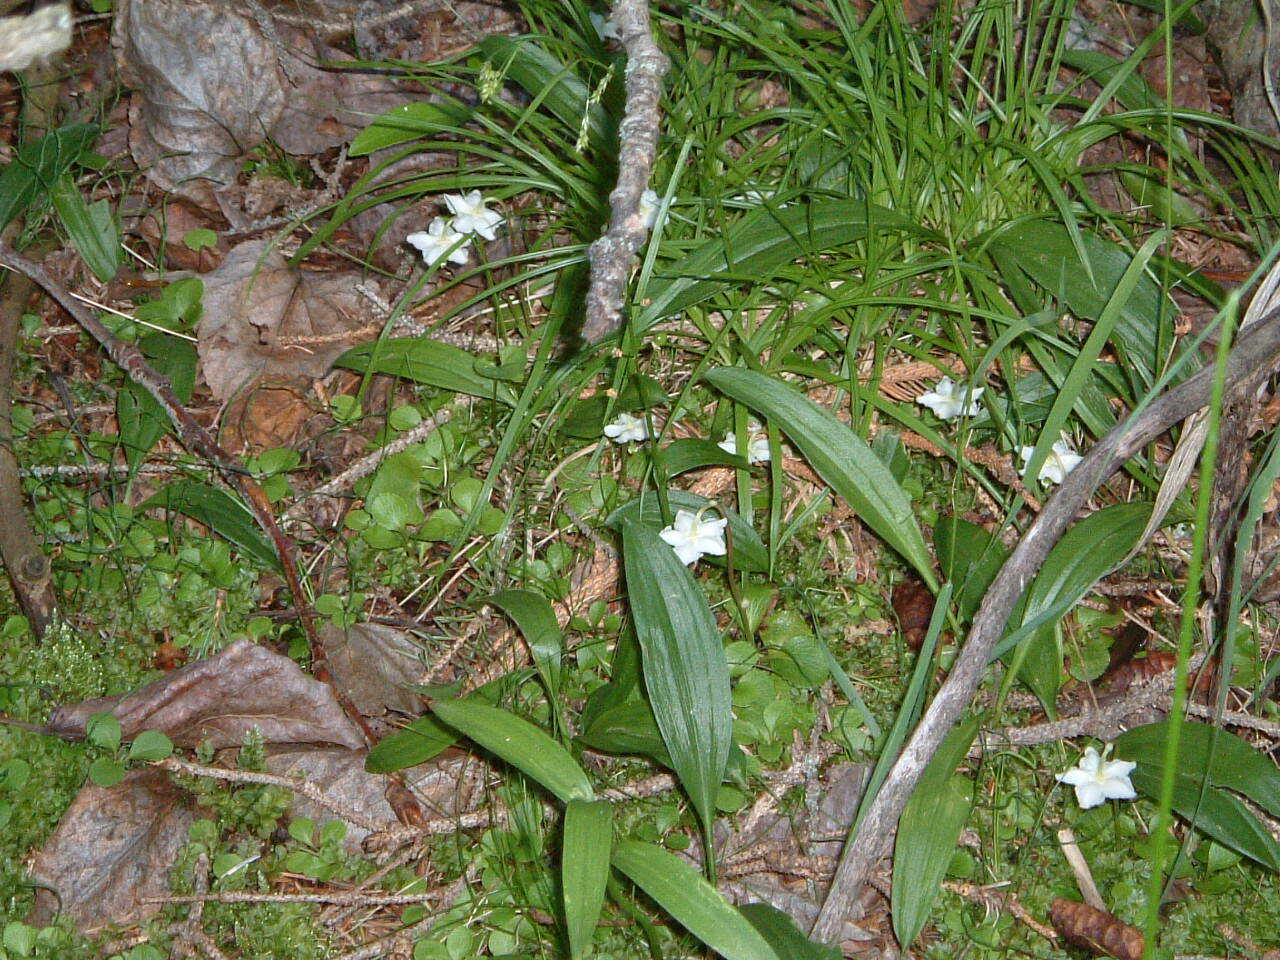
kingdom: Plantae
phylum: Tracheophyta
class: Magnoliopsida
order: Ericales
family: Ericaceae
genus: Moneses
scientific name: Moneses uniflora
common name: One-flowered wintergreen
